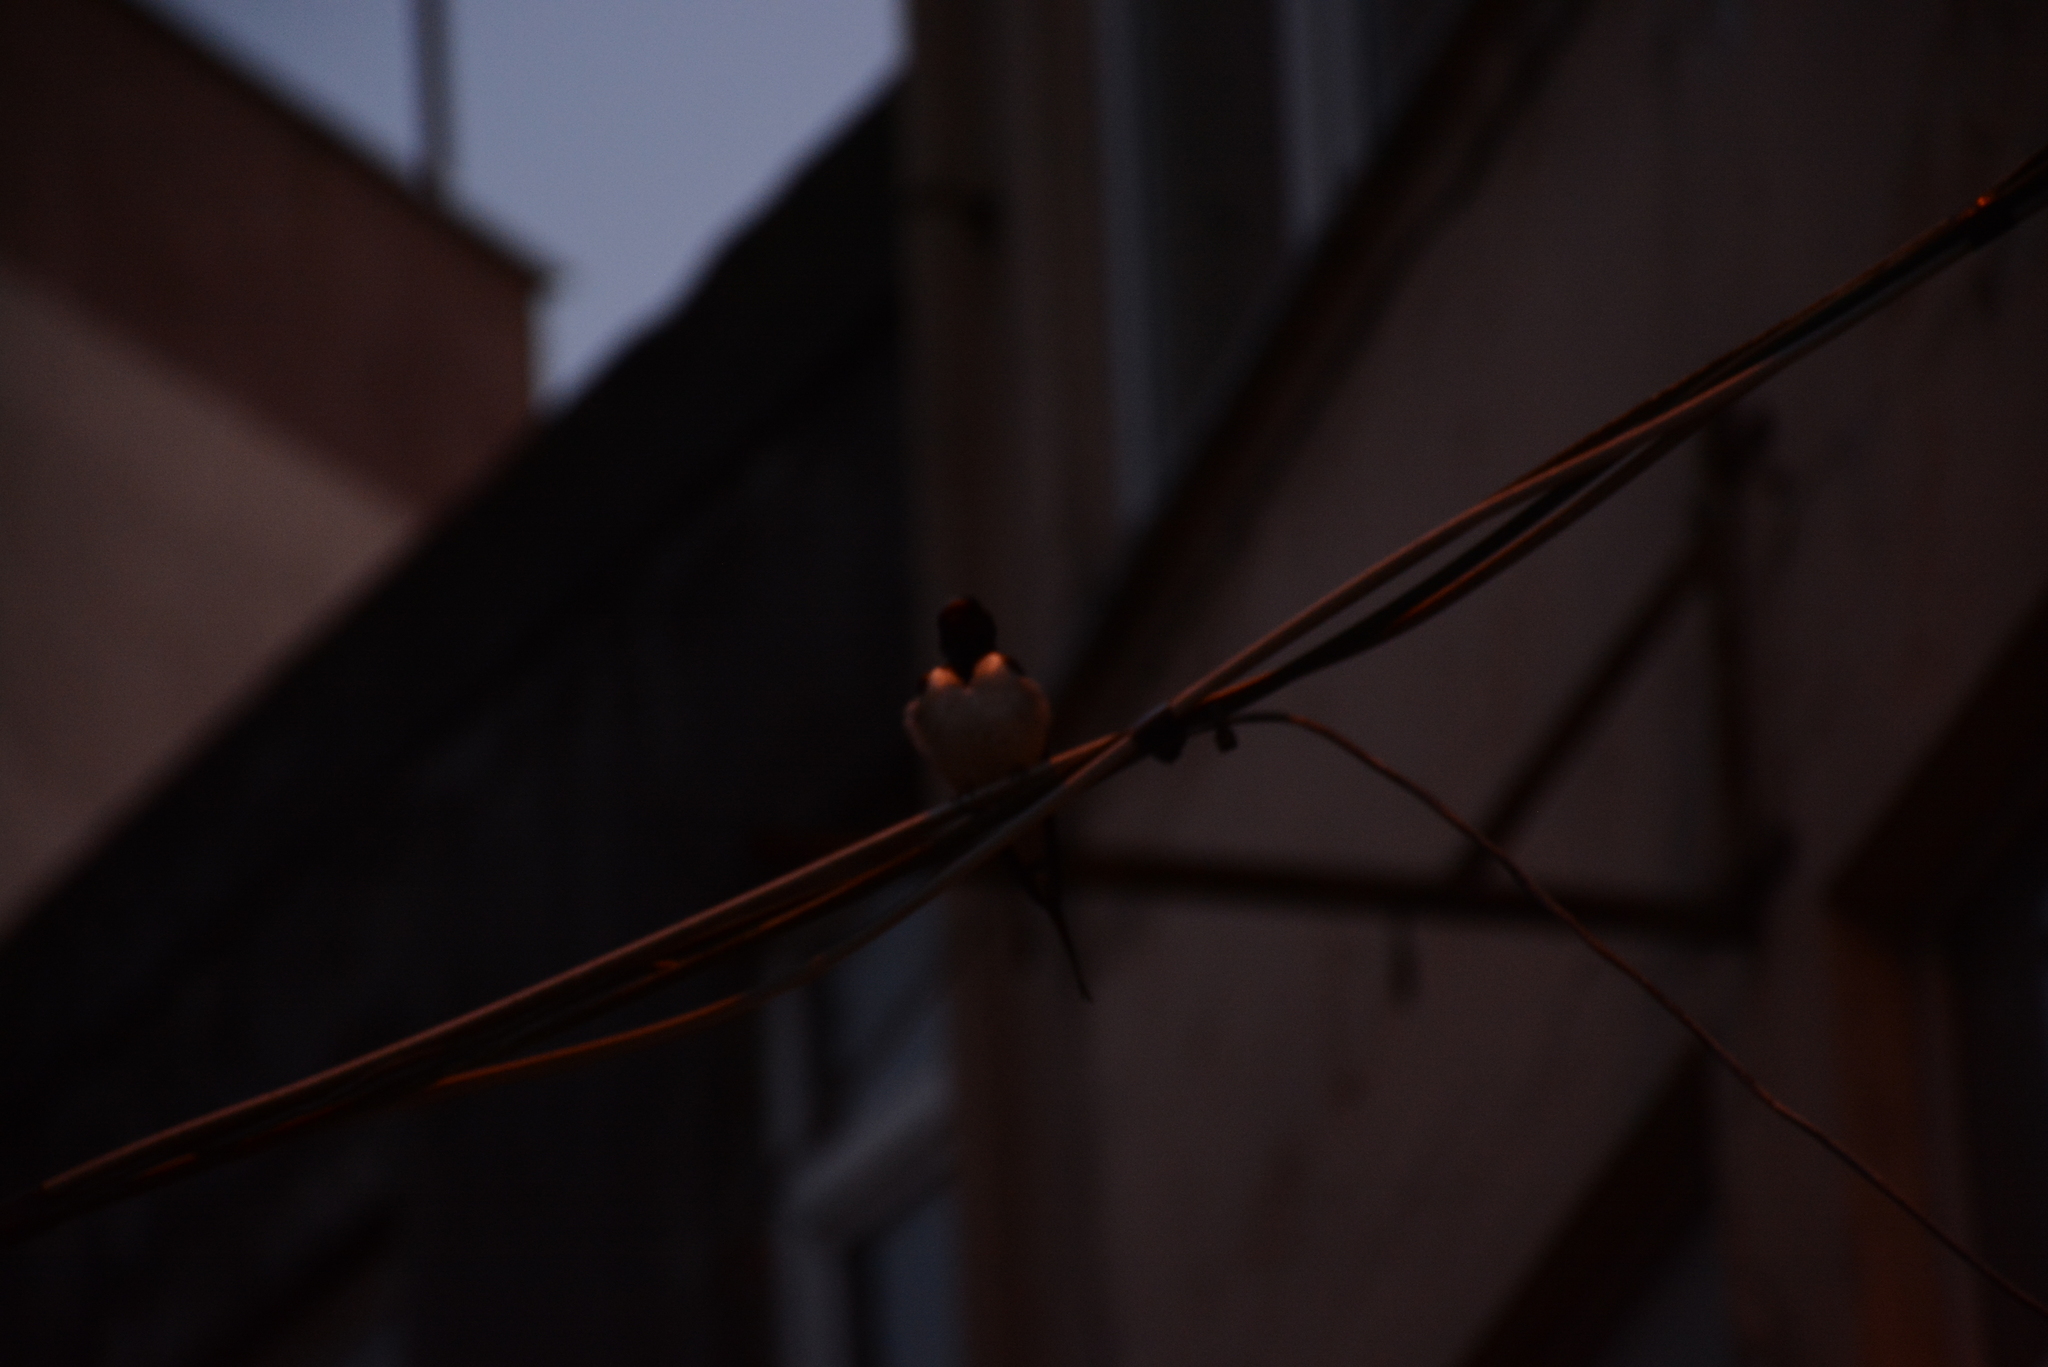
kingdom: Animalia
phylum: Chordata
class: Aves
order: Passeriformes
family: Hirundinidae
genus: Hirundo
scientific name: Hirundo rustica
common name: Barn swallow
